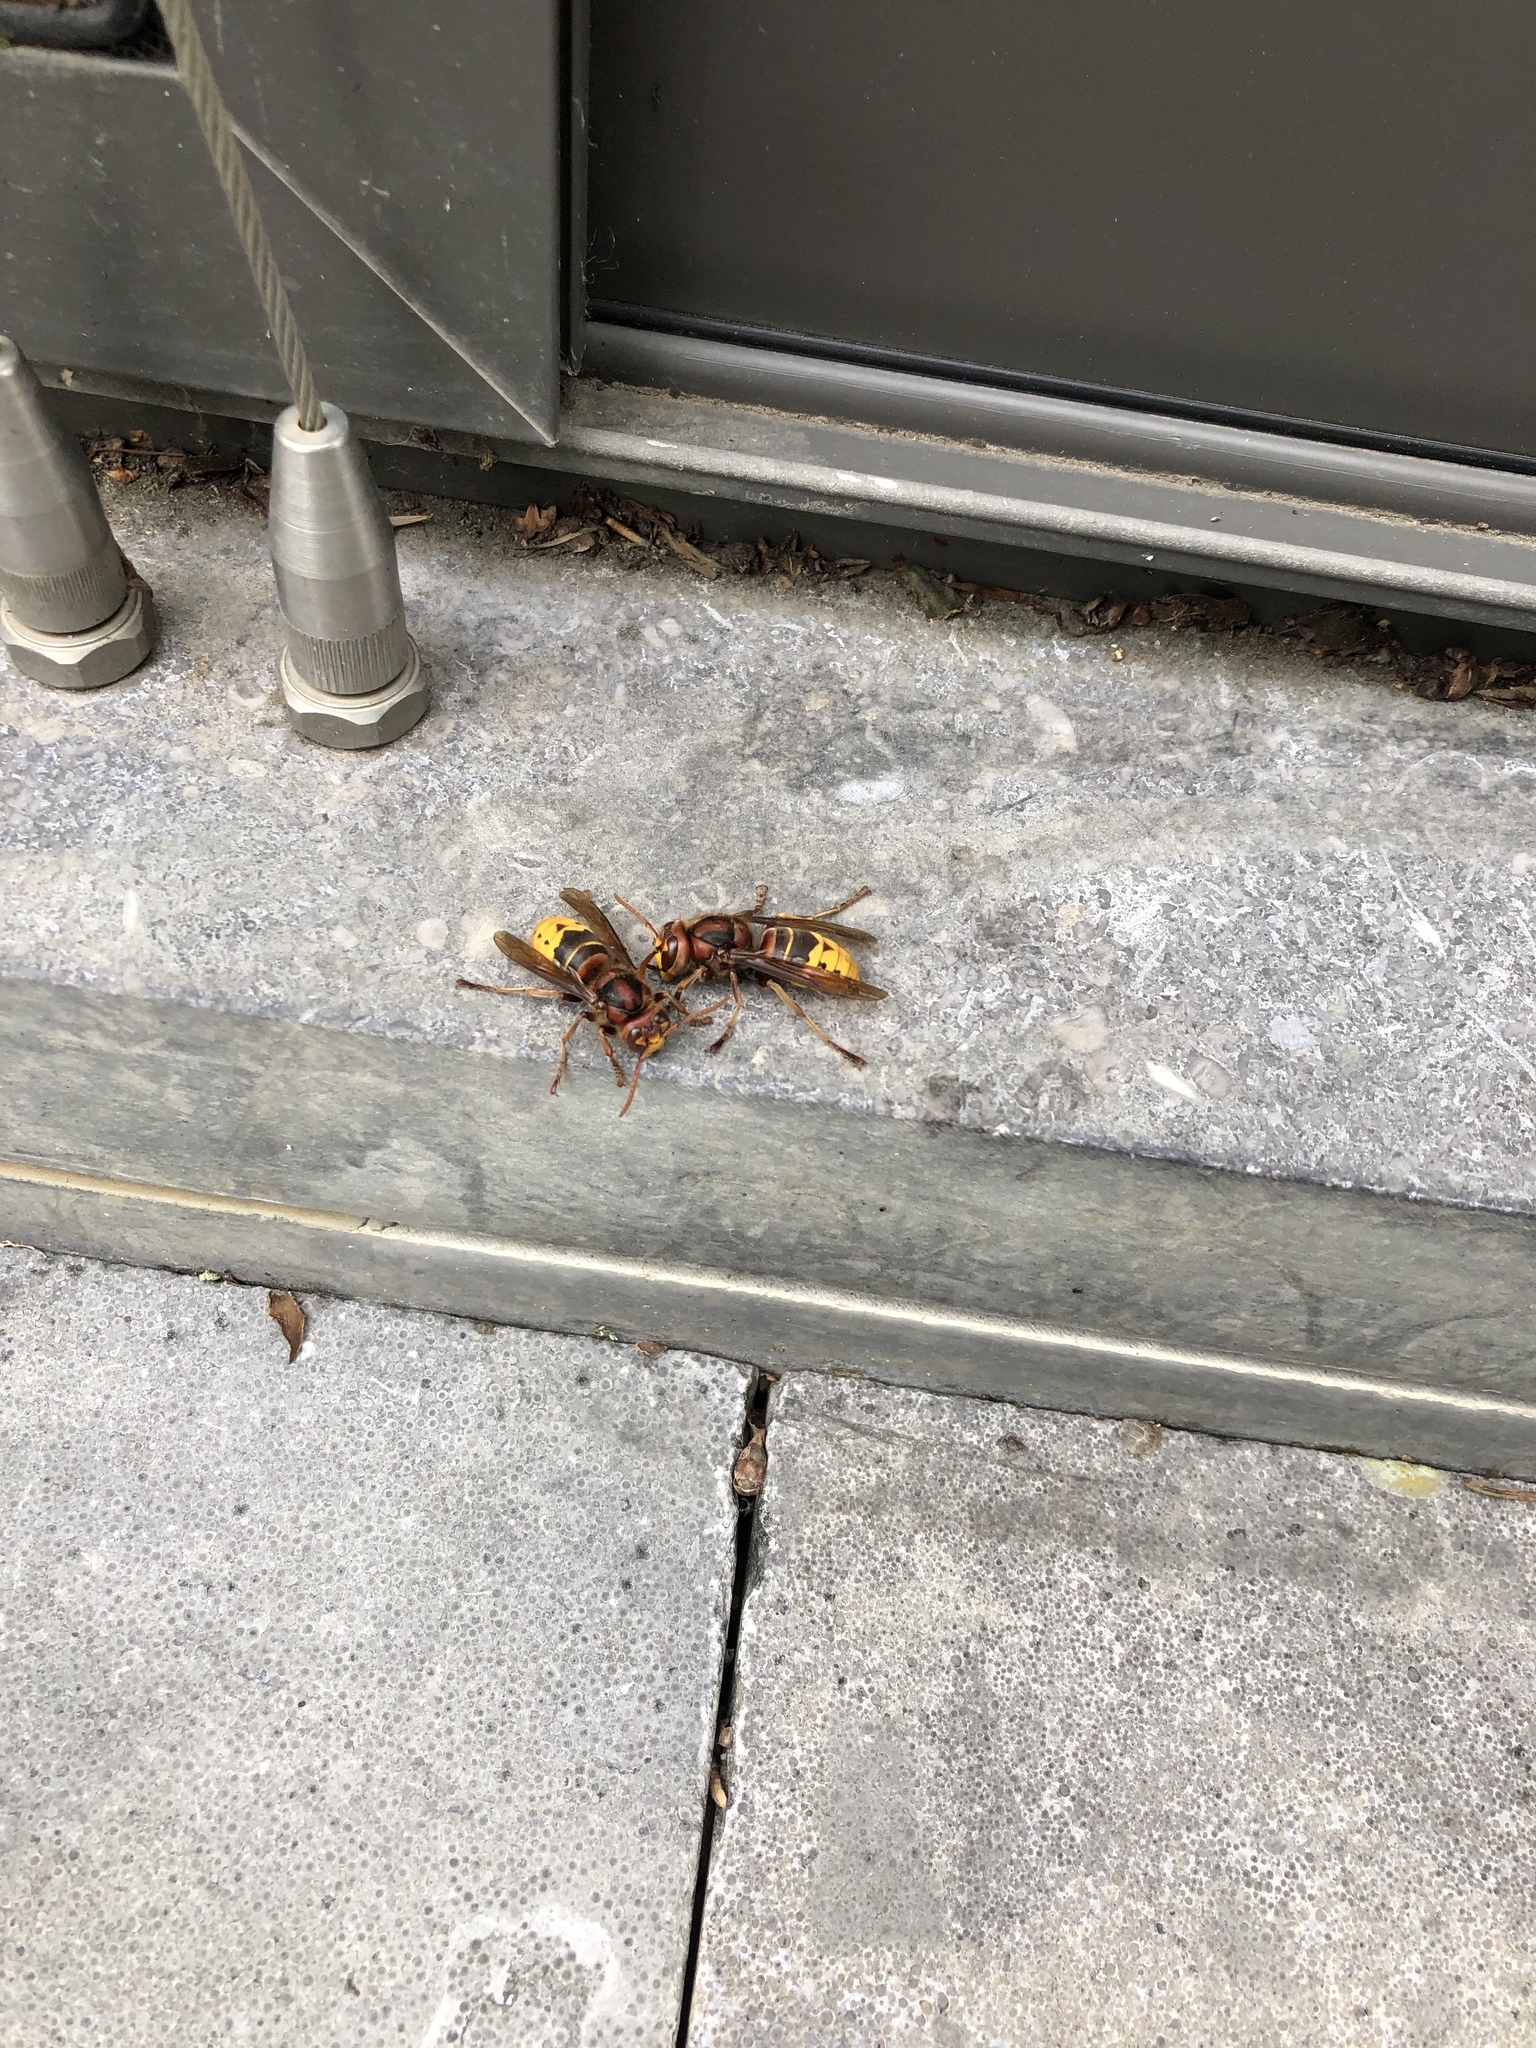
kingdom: Animalia
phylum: Arthropoda
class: Insecta
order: Hymenoptera
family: Vespidae
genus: Vespa
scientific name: Vespa crabro
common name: Hornet
